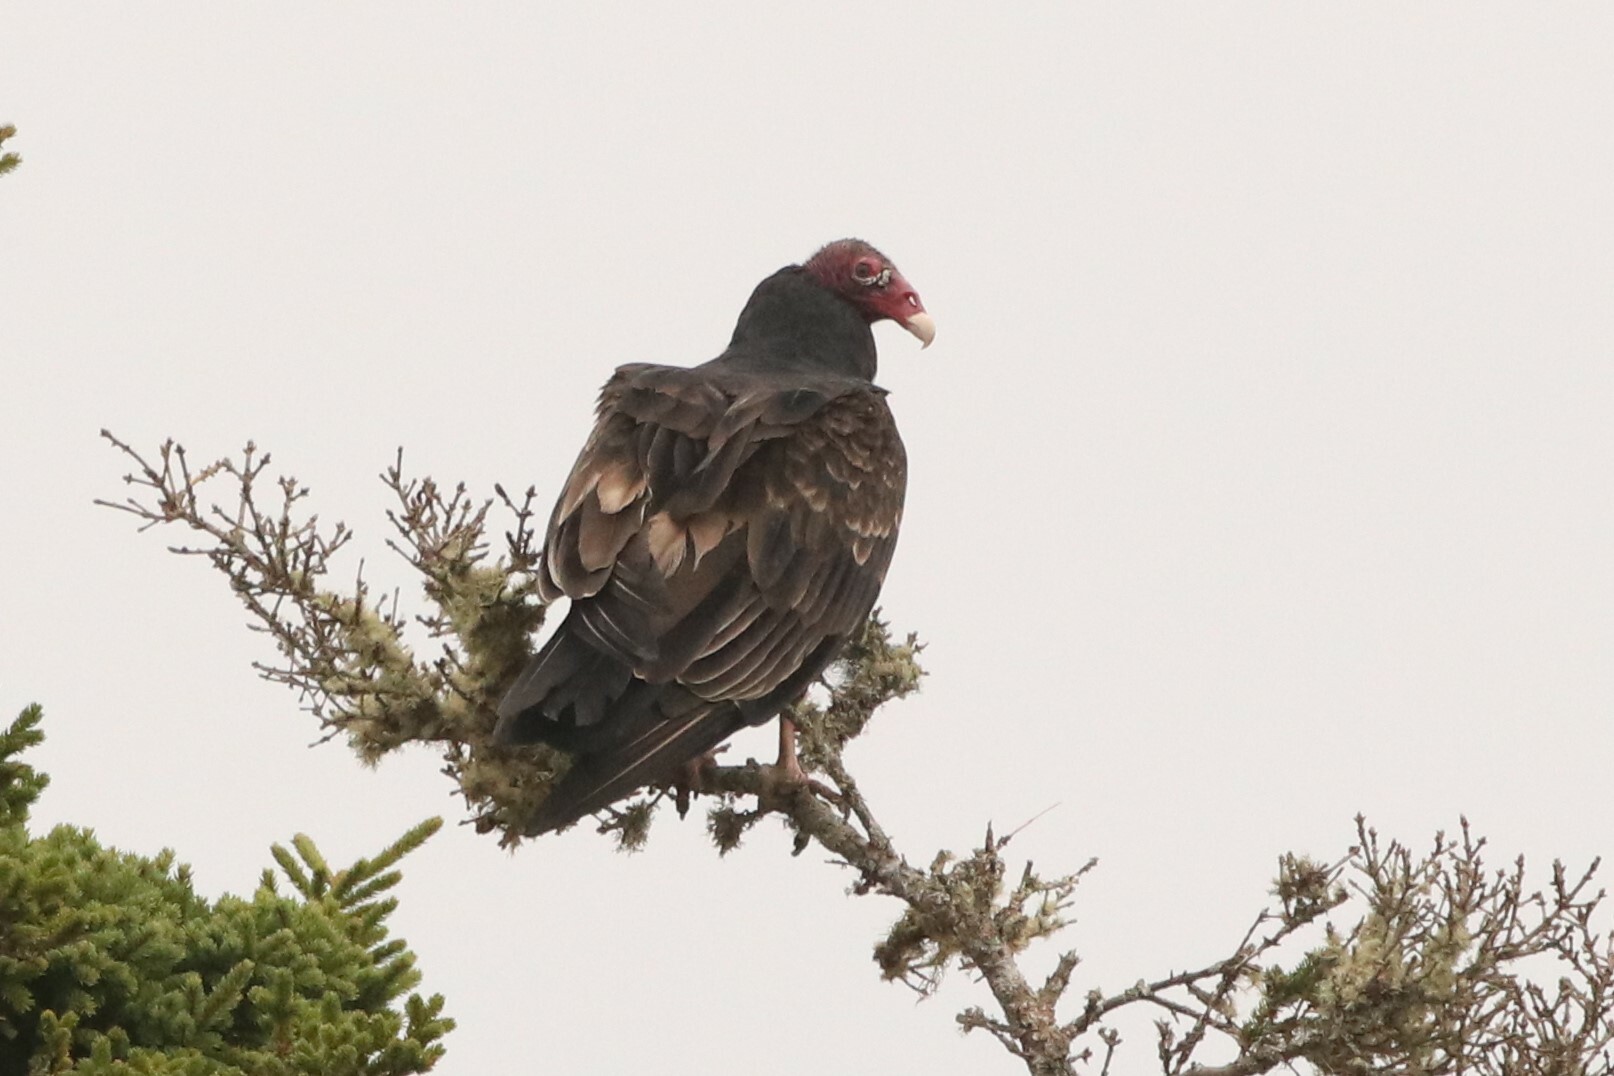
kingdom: Animalia
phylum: Chordata
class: Aves
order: Accipitriformes
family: Cathartidae
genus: Cathartes
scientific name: Cathartes aura
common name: Turkey vulture
